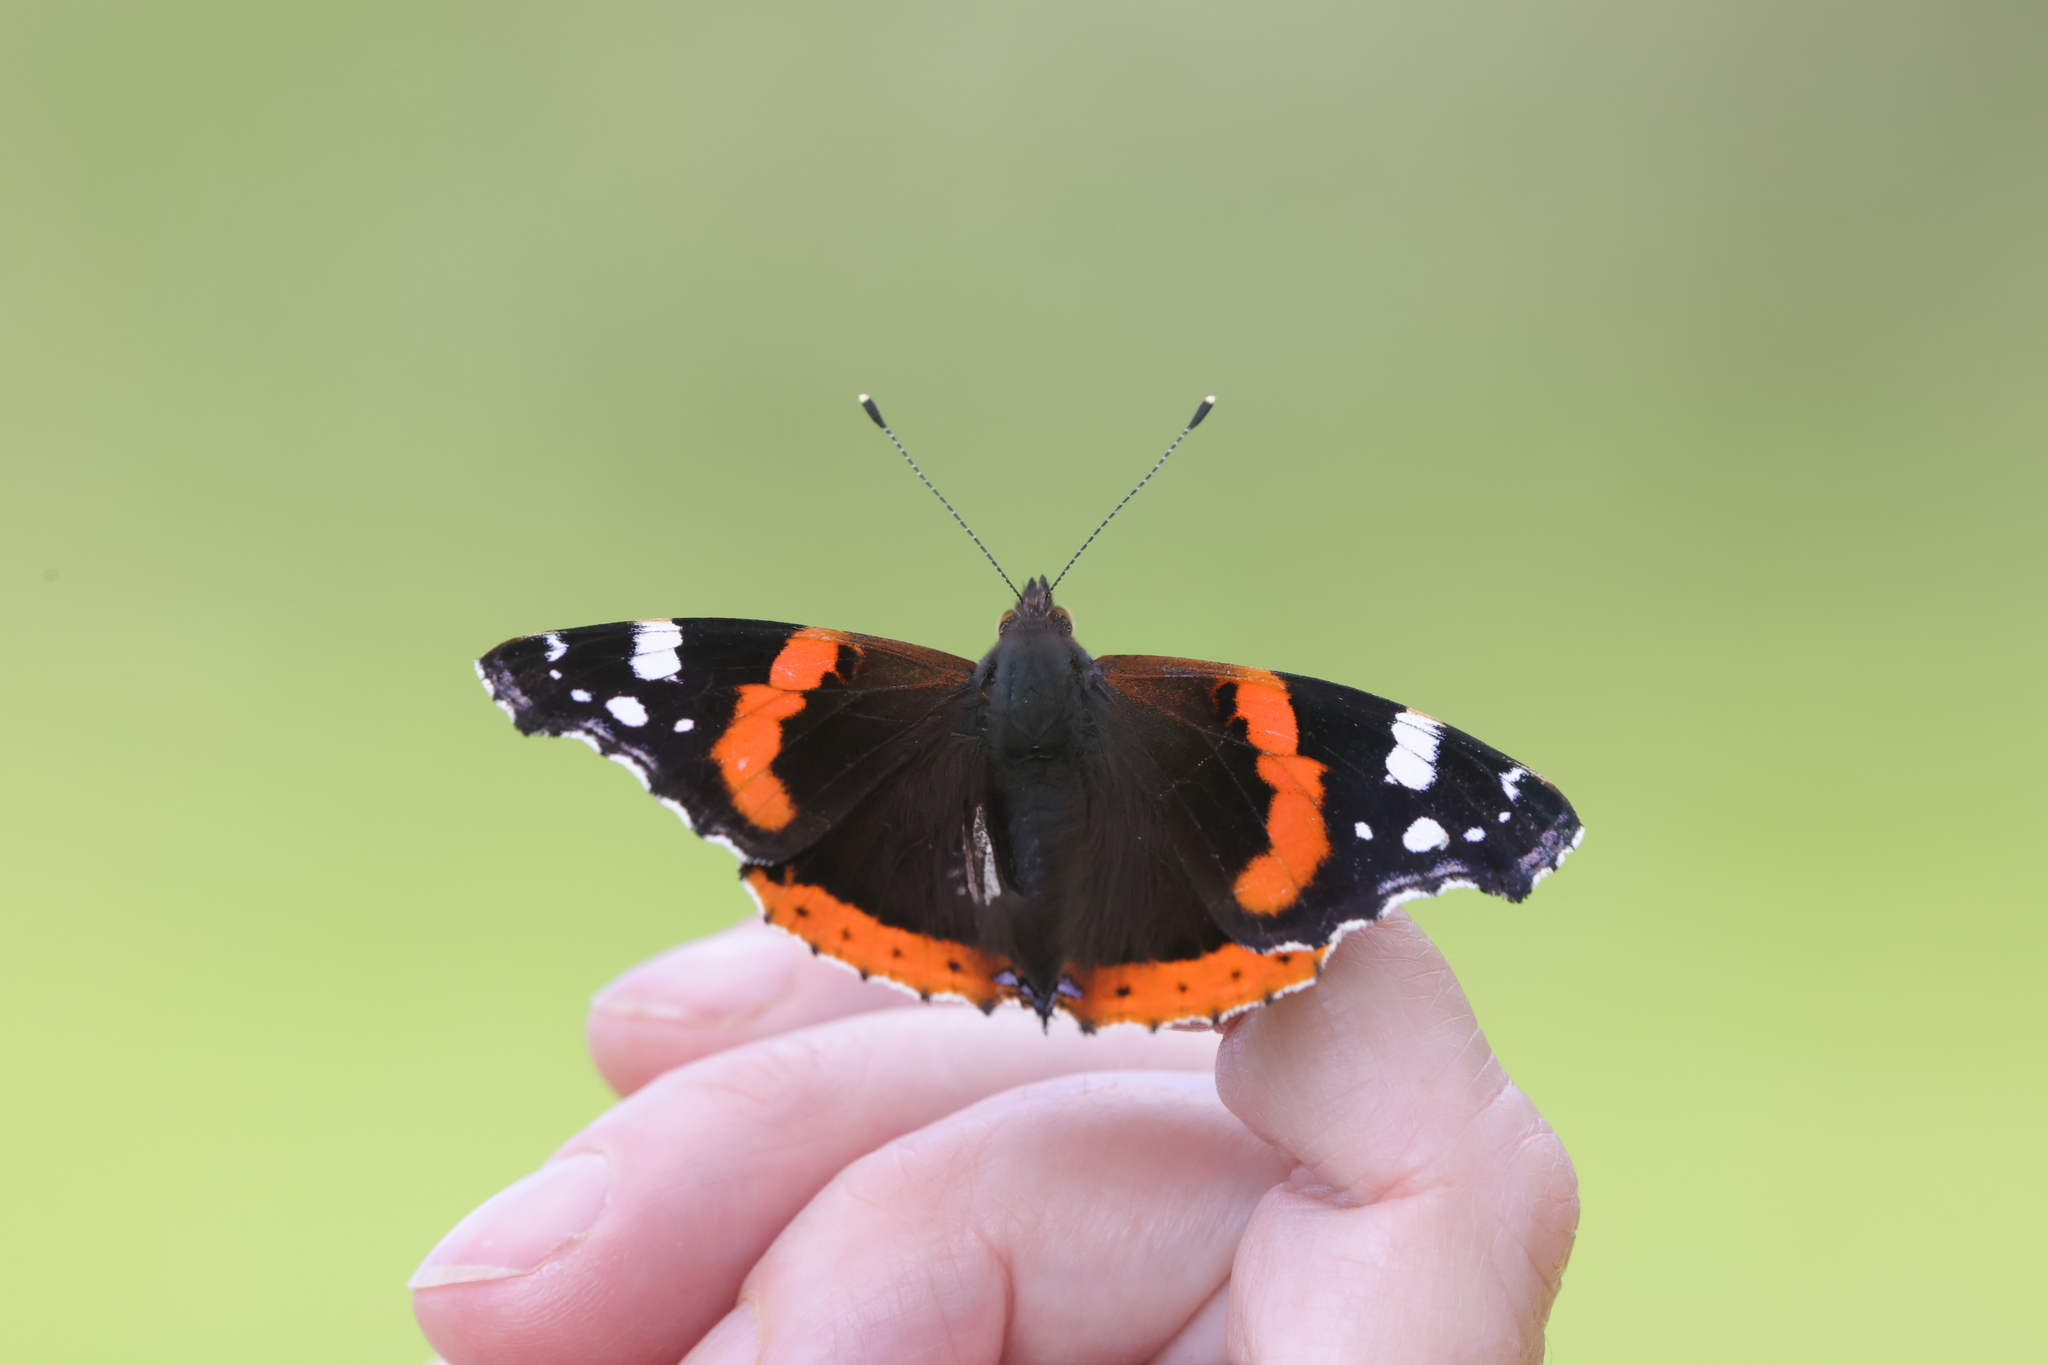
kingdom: Animalia
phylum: Arthropoda
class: Insecta
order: Lepidoptera
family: Nymphalidae
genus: Vanessa
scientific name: Vanessa atalanta
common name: Red admiral
